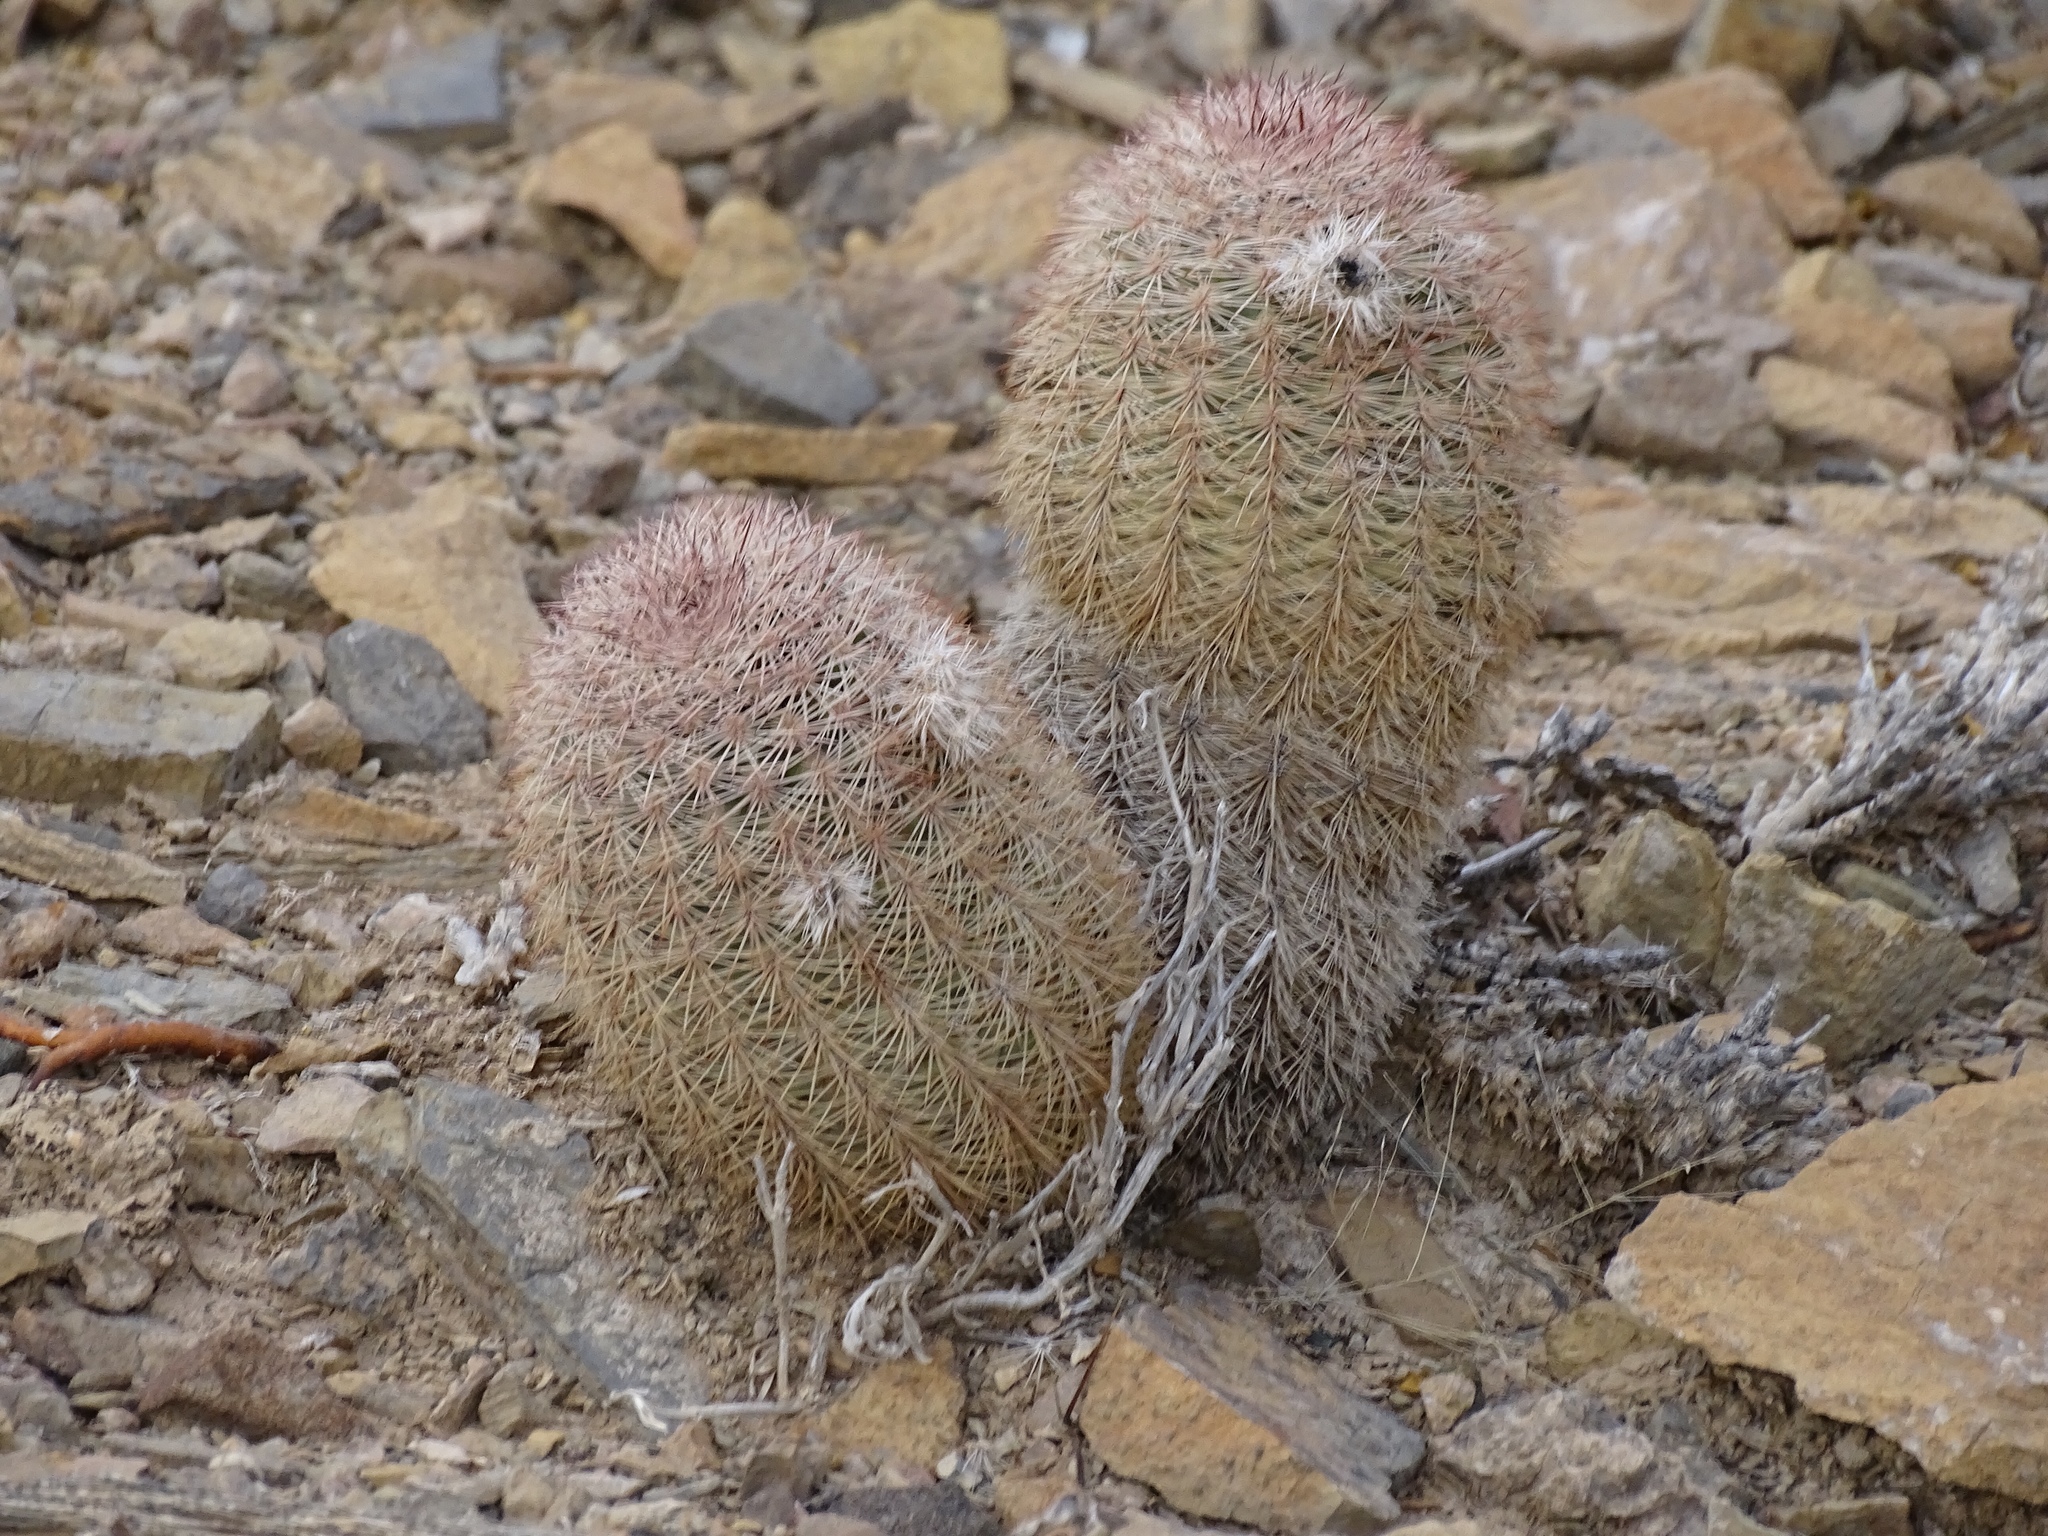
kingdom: Plantae
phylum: Tracheophyta
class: Magnoliopsida
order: Caryophyllales
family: Cactaceae
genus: Echinocereus
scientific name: Echinocereus dasyacanthus
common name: Spiny hedgehog cactus
